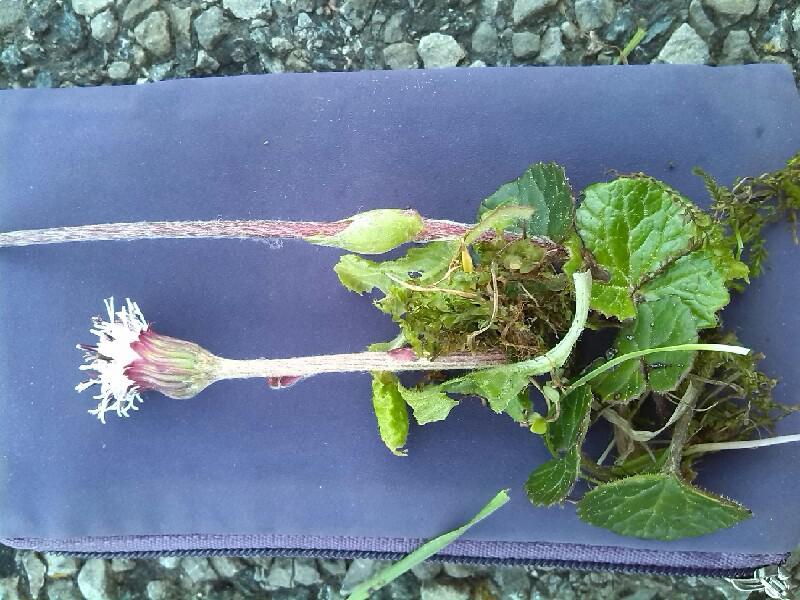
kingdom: Plantae
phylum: Tracheophyta
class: Magnoliopsida
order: Asterales
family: Asteraceae
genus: Homogyne
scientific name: Homogyne alpina
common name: Purple colt's-foot
